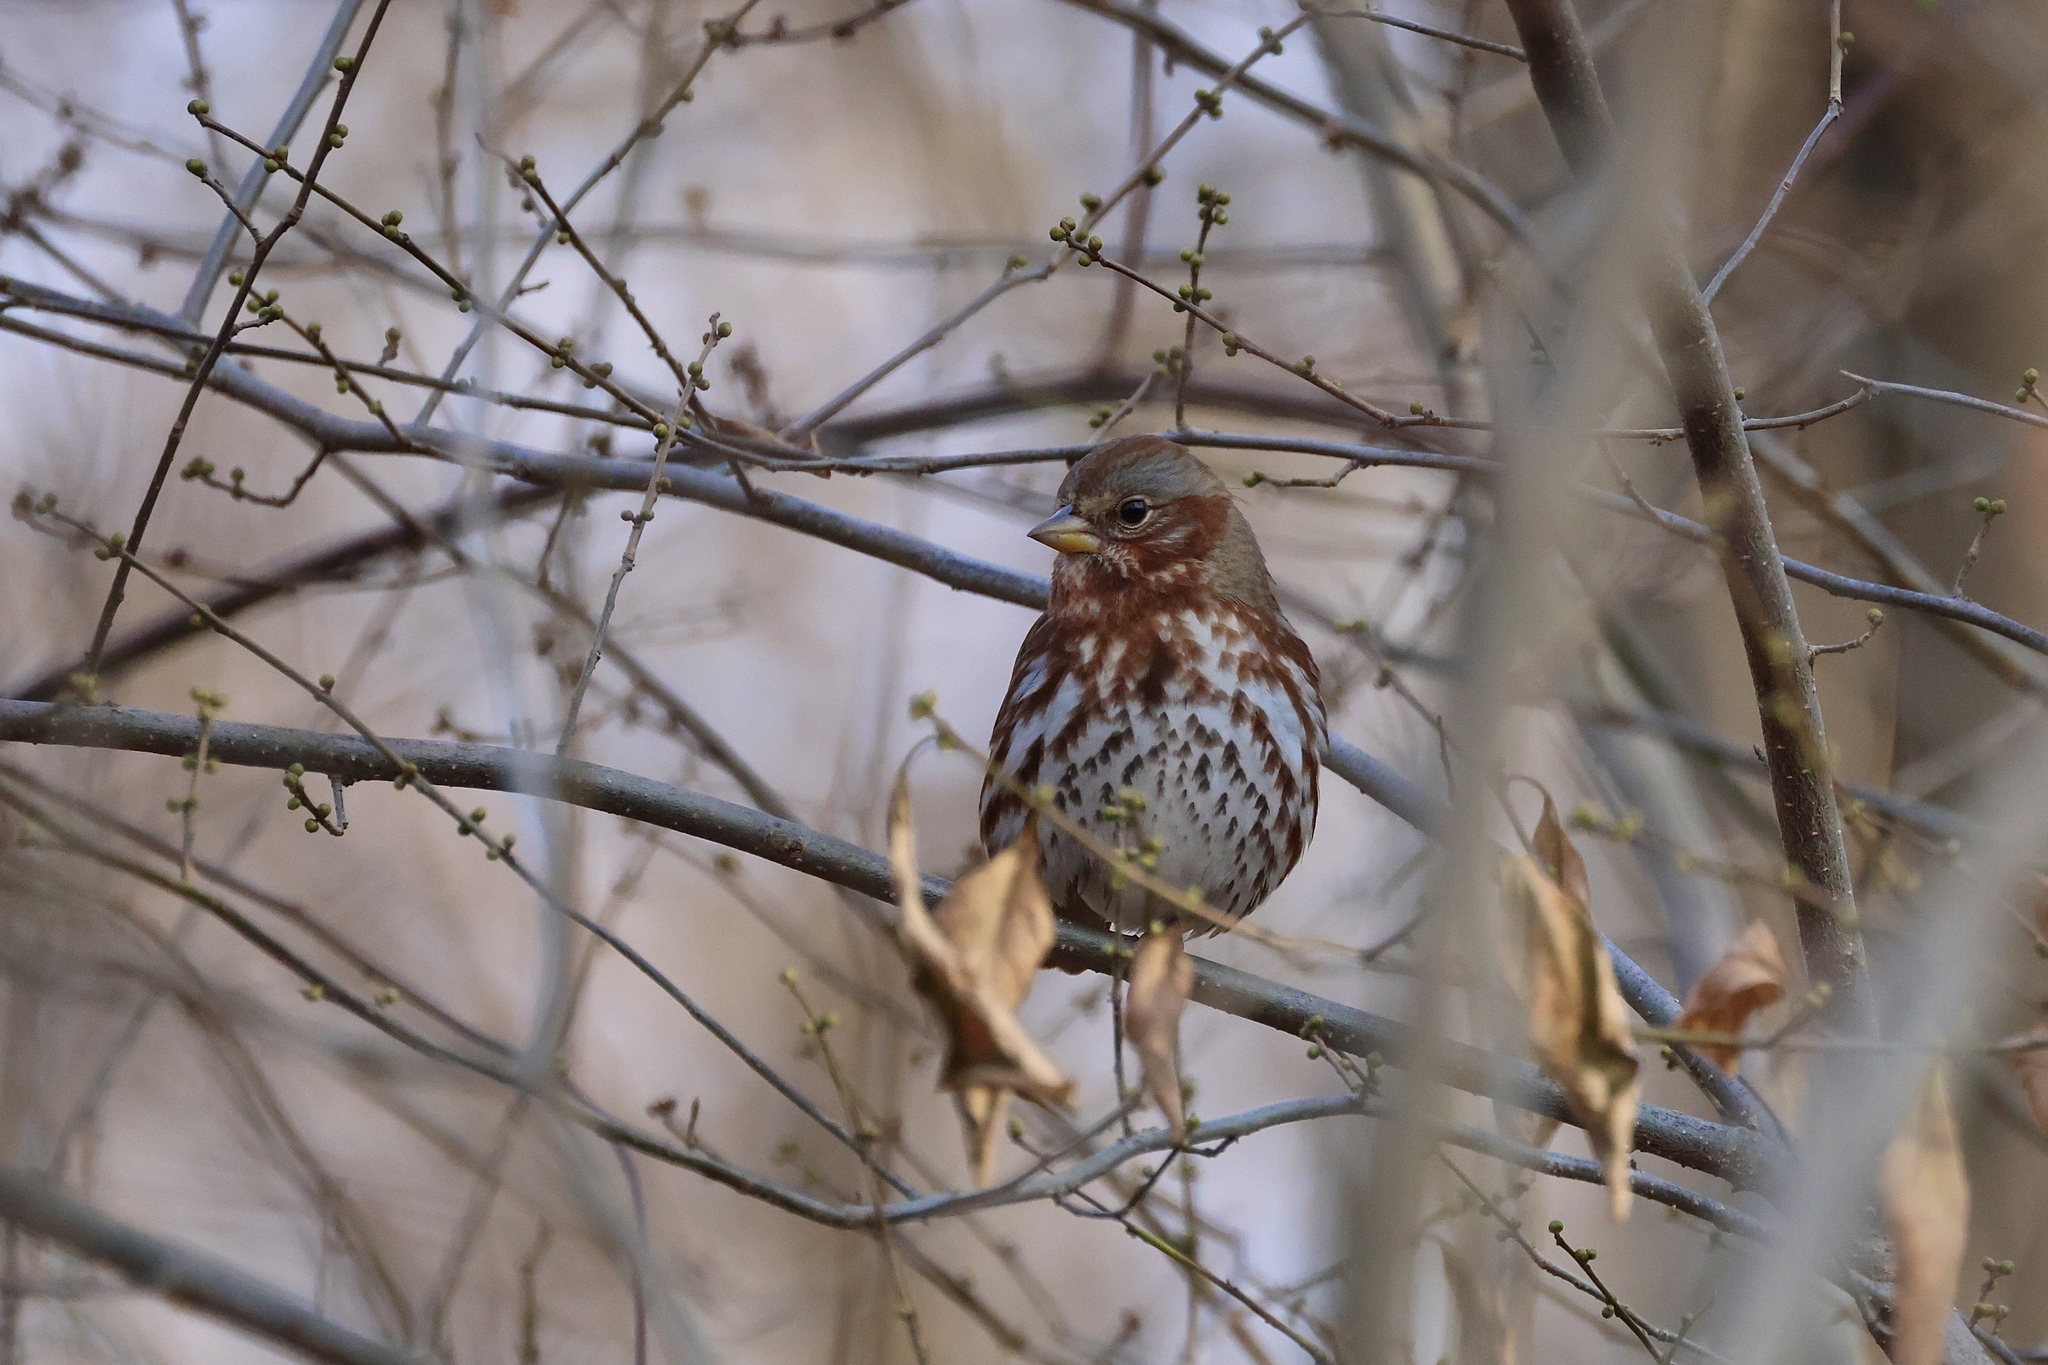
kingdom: Animalia
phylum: Chordata
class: Aves
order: Passeriformes
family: Passerellidae
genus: Passerella
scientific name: Passerella iliaca
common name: Fox sparrow
